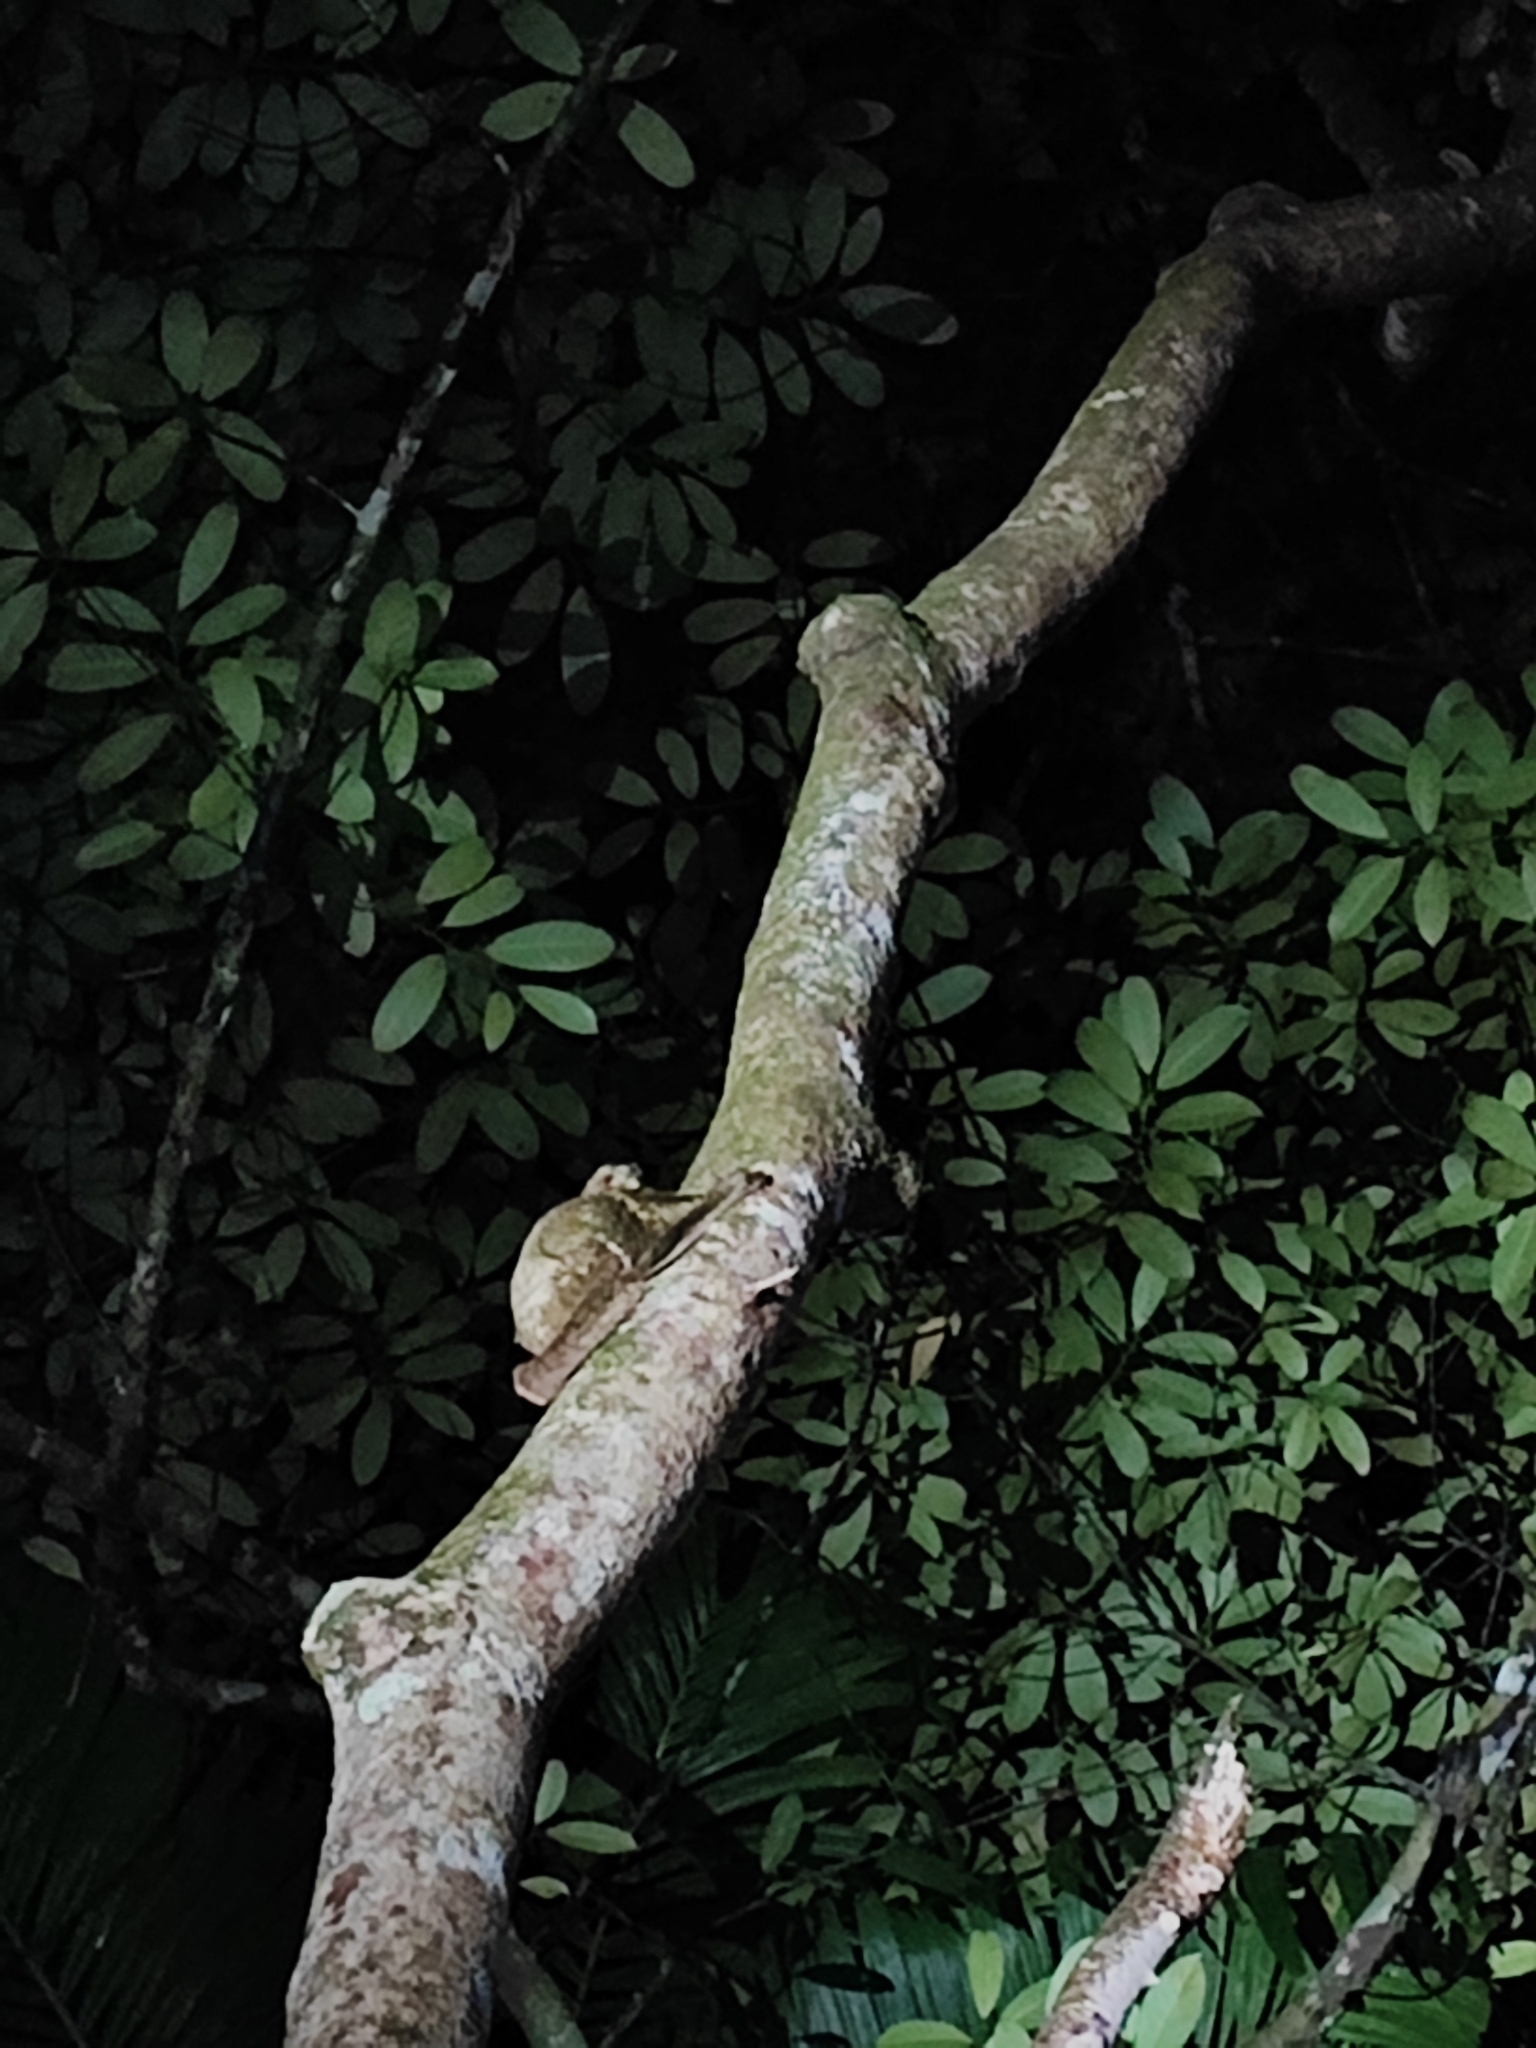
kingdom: Animalia
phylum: Chordata
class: Mammalia
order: Dermoptera
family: Cynocephalidae
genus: Galeopterus
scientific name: Galeopterus variegatus
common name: Sunda flying lemur
